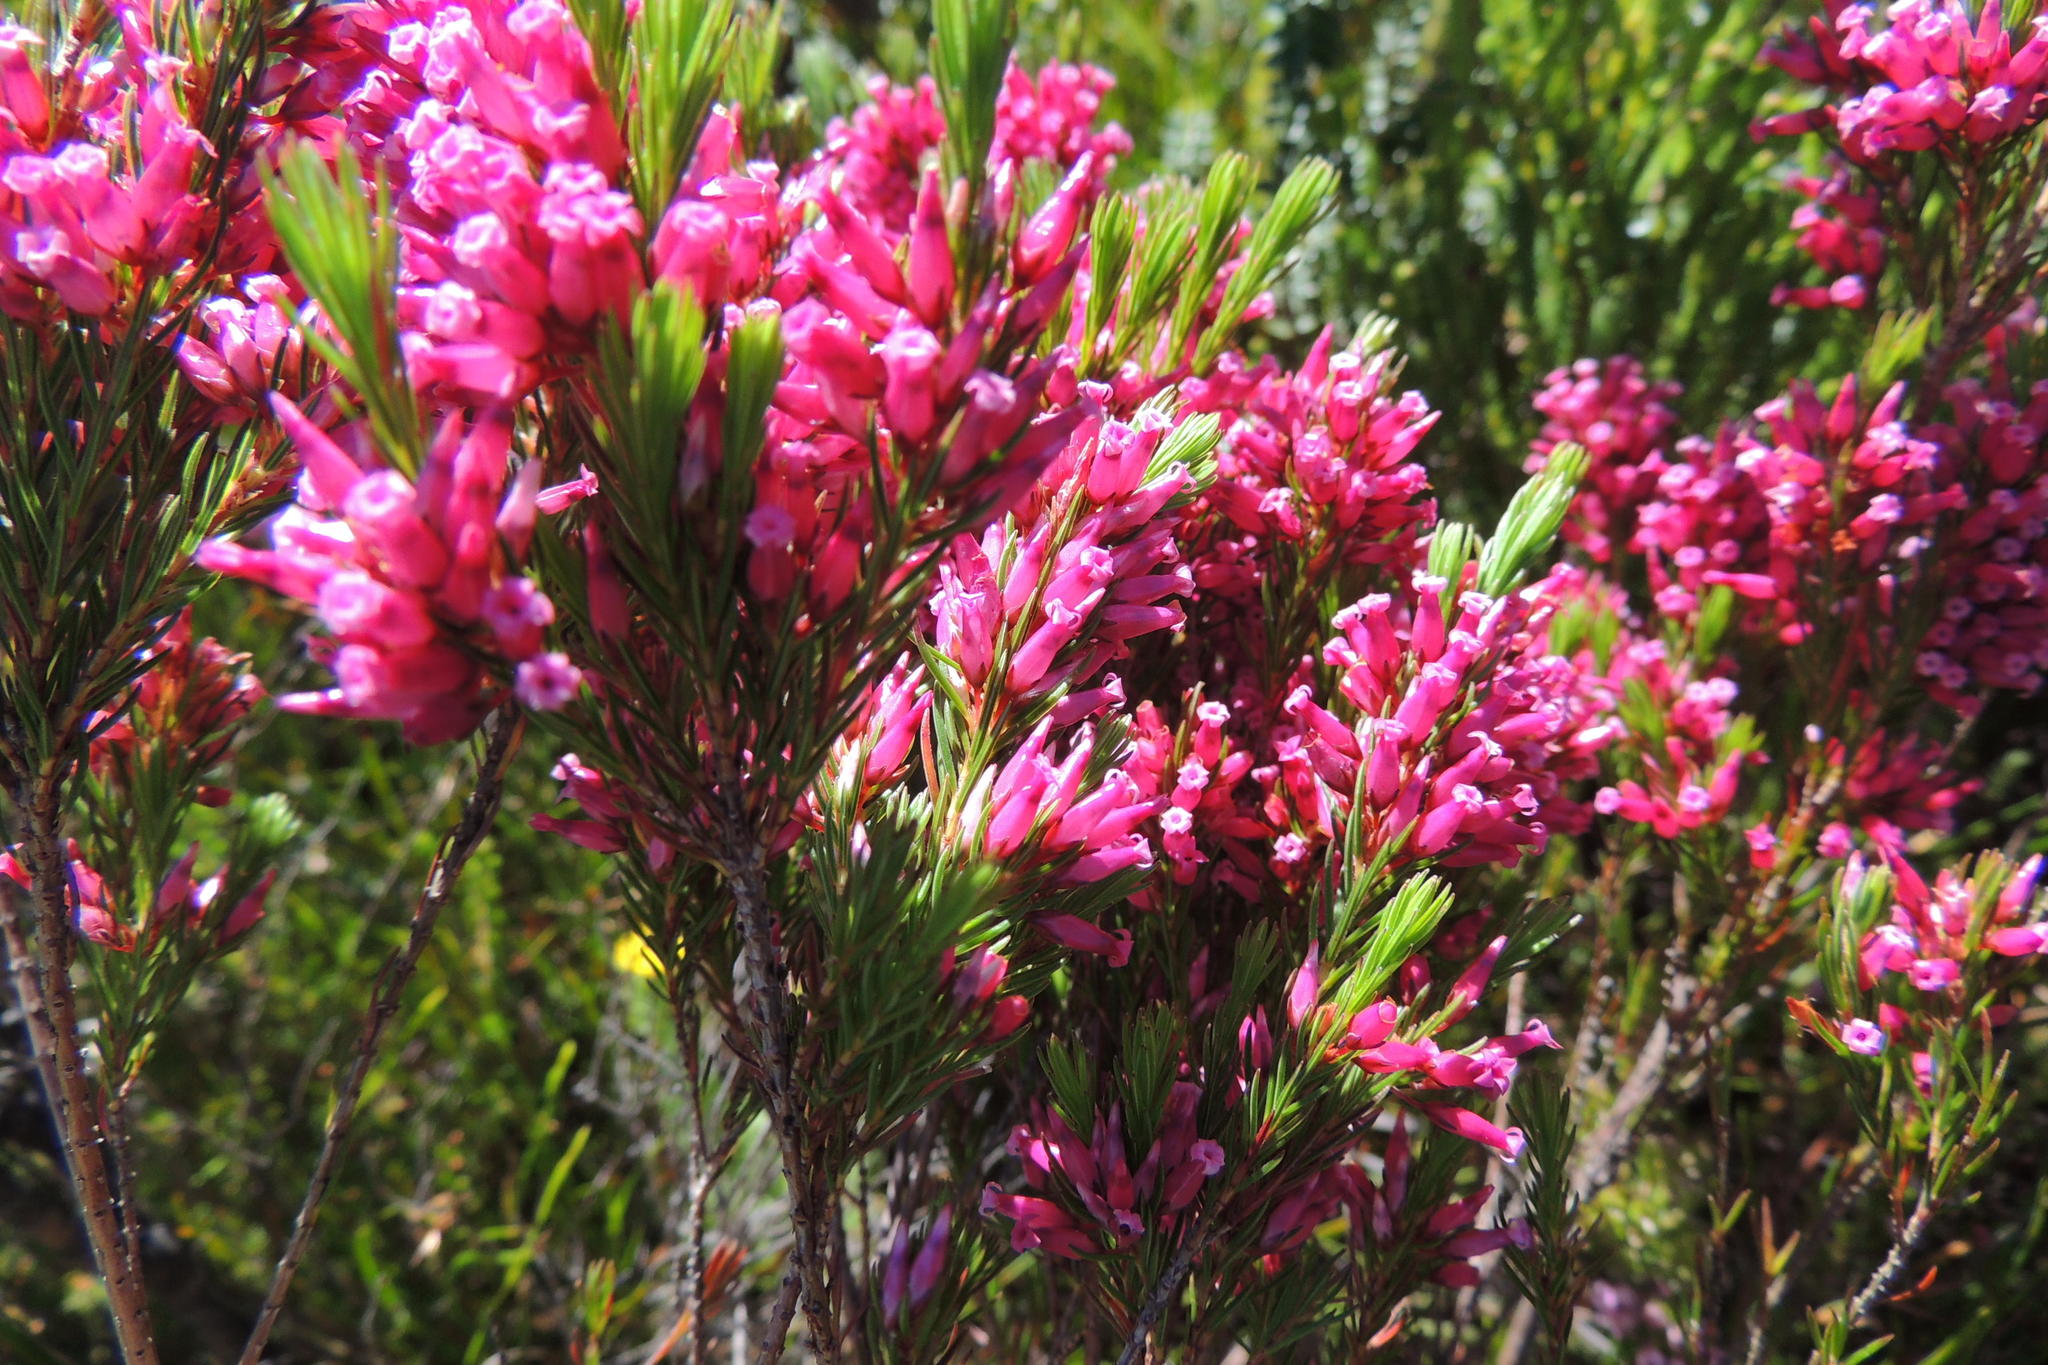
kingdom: Plantae
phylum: Tracheophyta
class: Magnoliopsida
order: Ericales
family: Ericaceae
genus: Erica
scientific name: Erica macilenta
